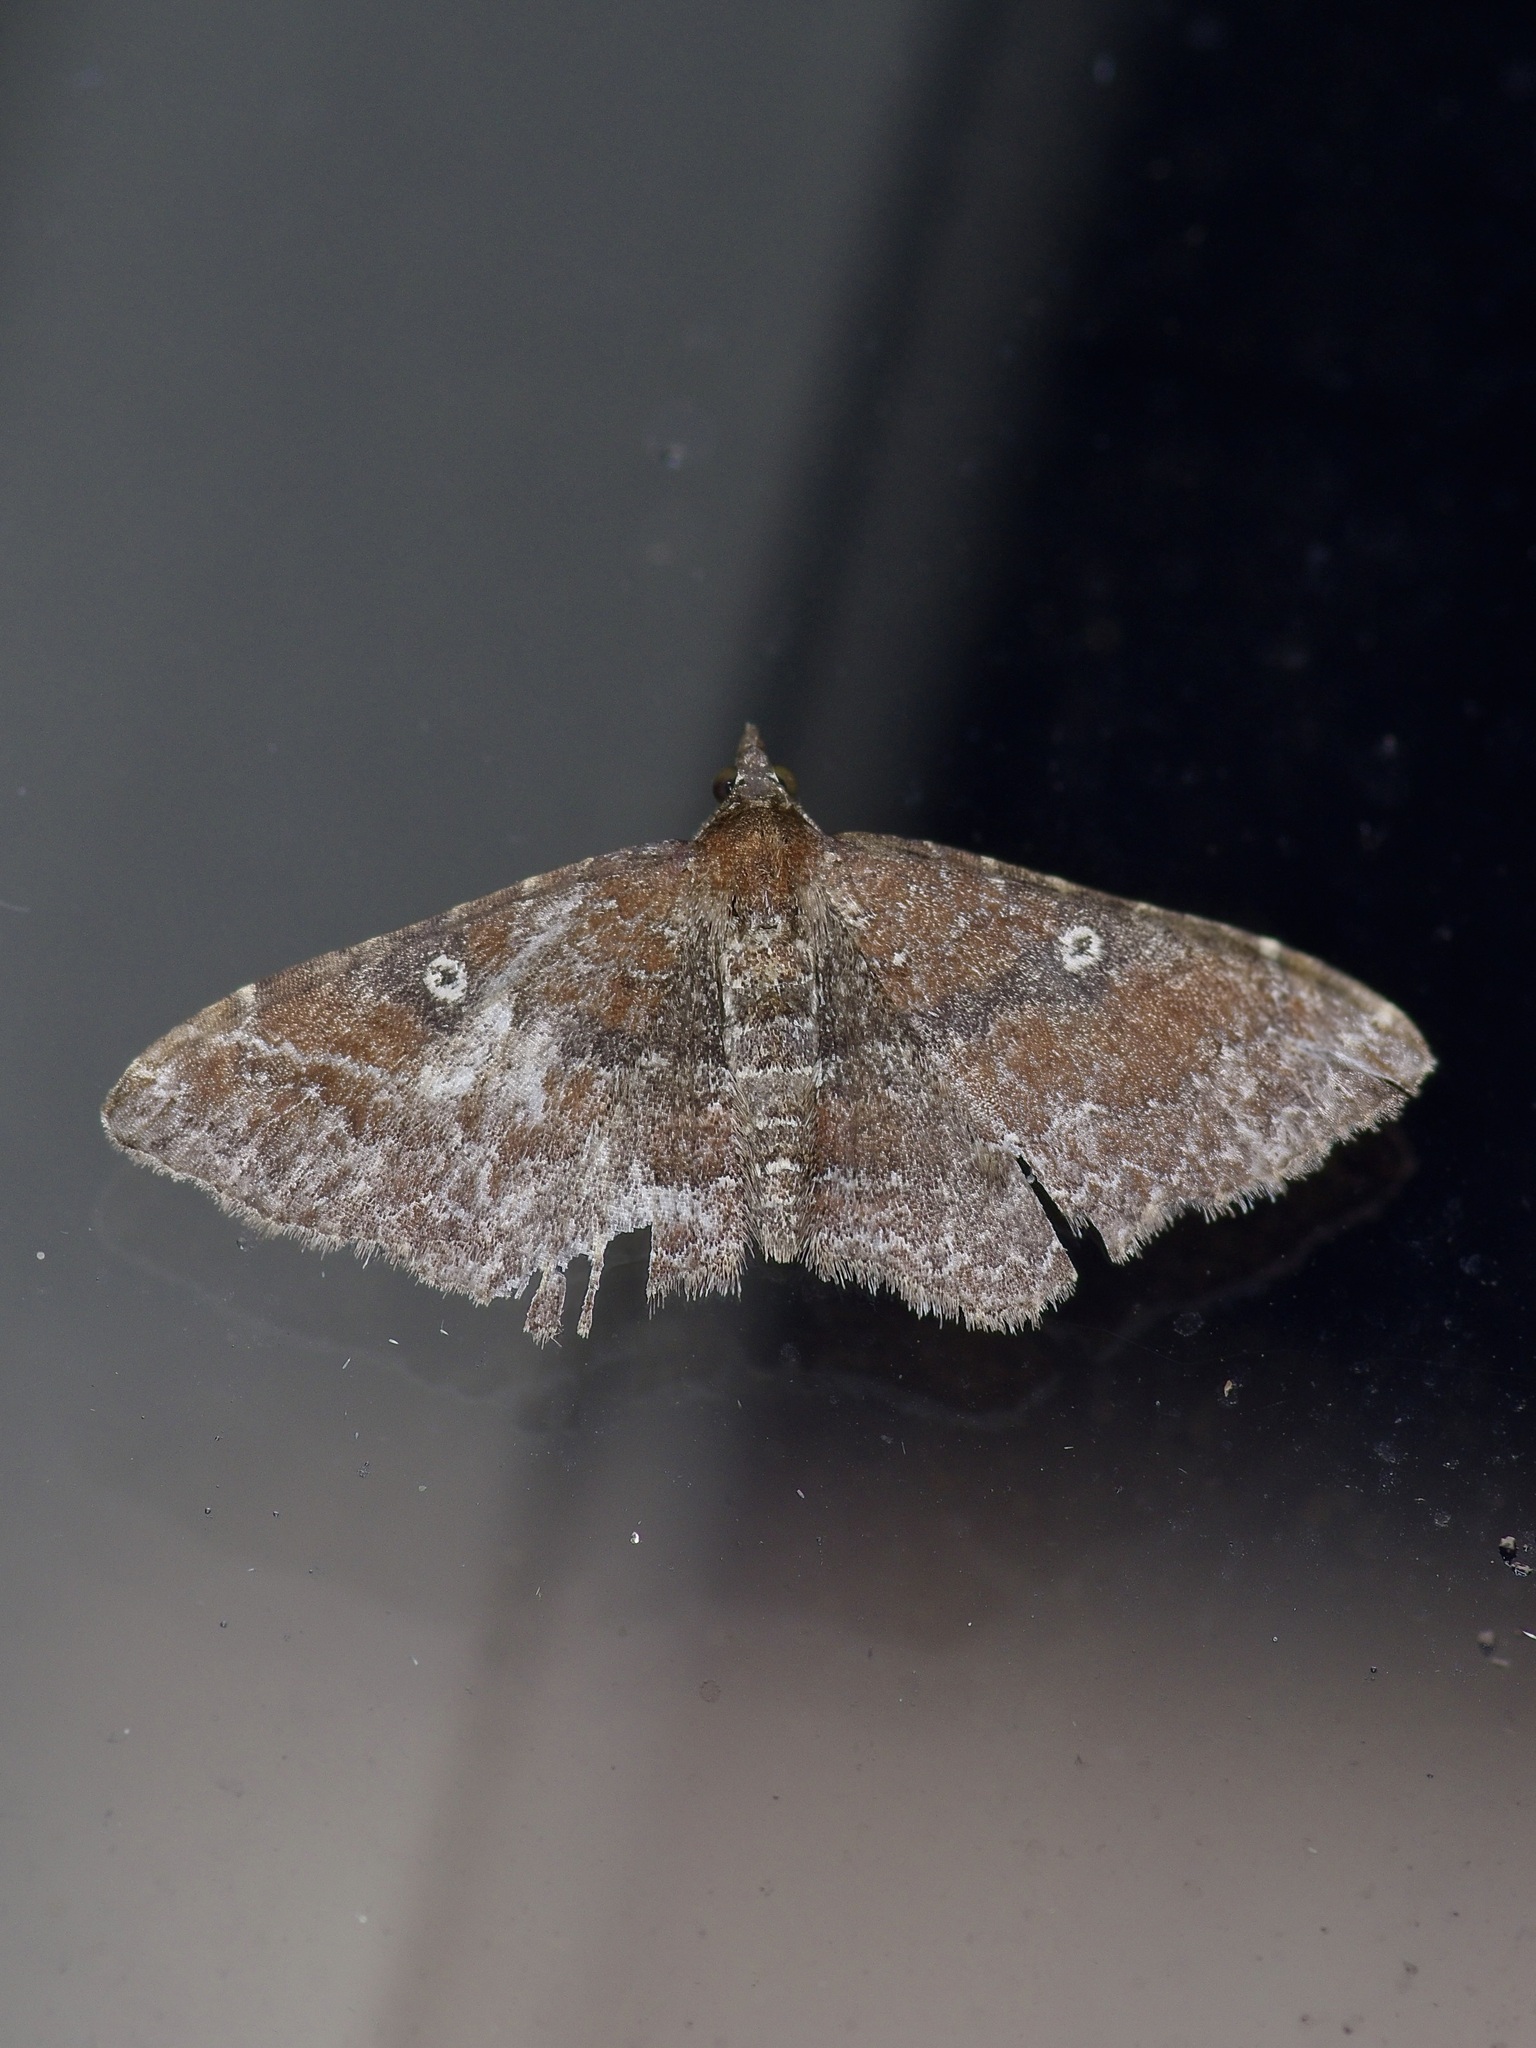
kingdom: Animalia
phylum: Arthropoda
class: Insecta
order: Lepidoptera
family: Geometridae
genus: Orthonama
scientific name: Orthonama obstipata
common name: The gem
